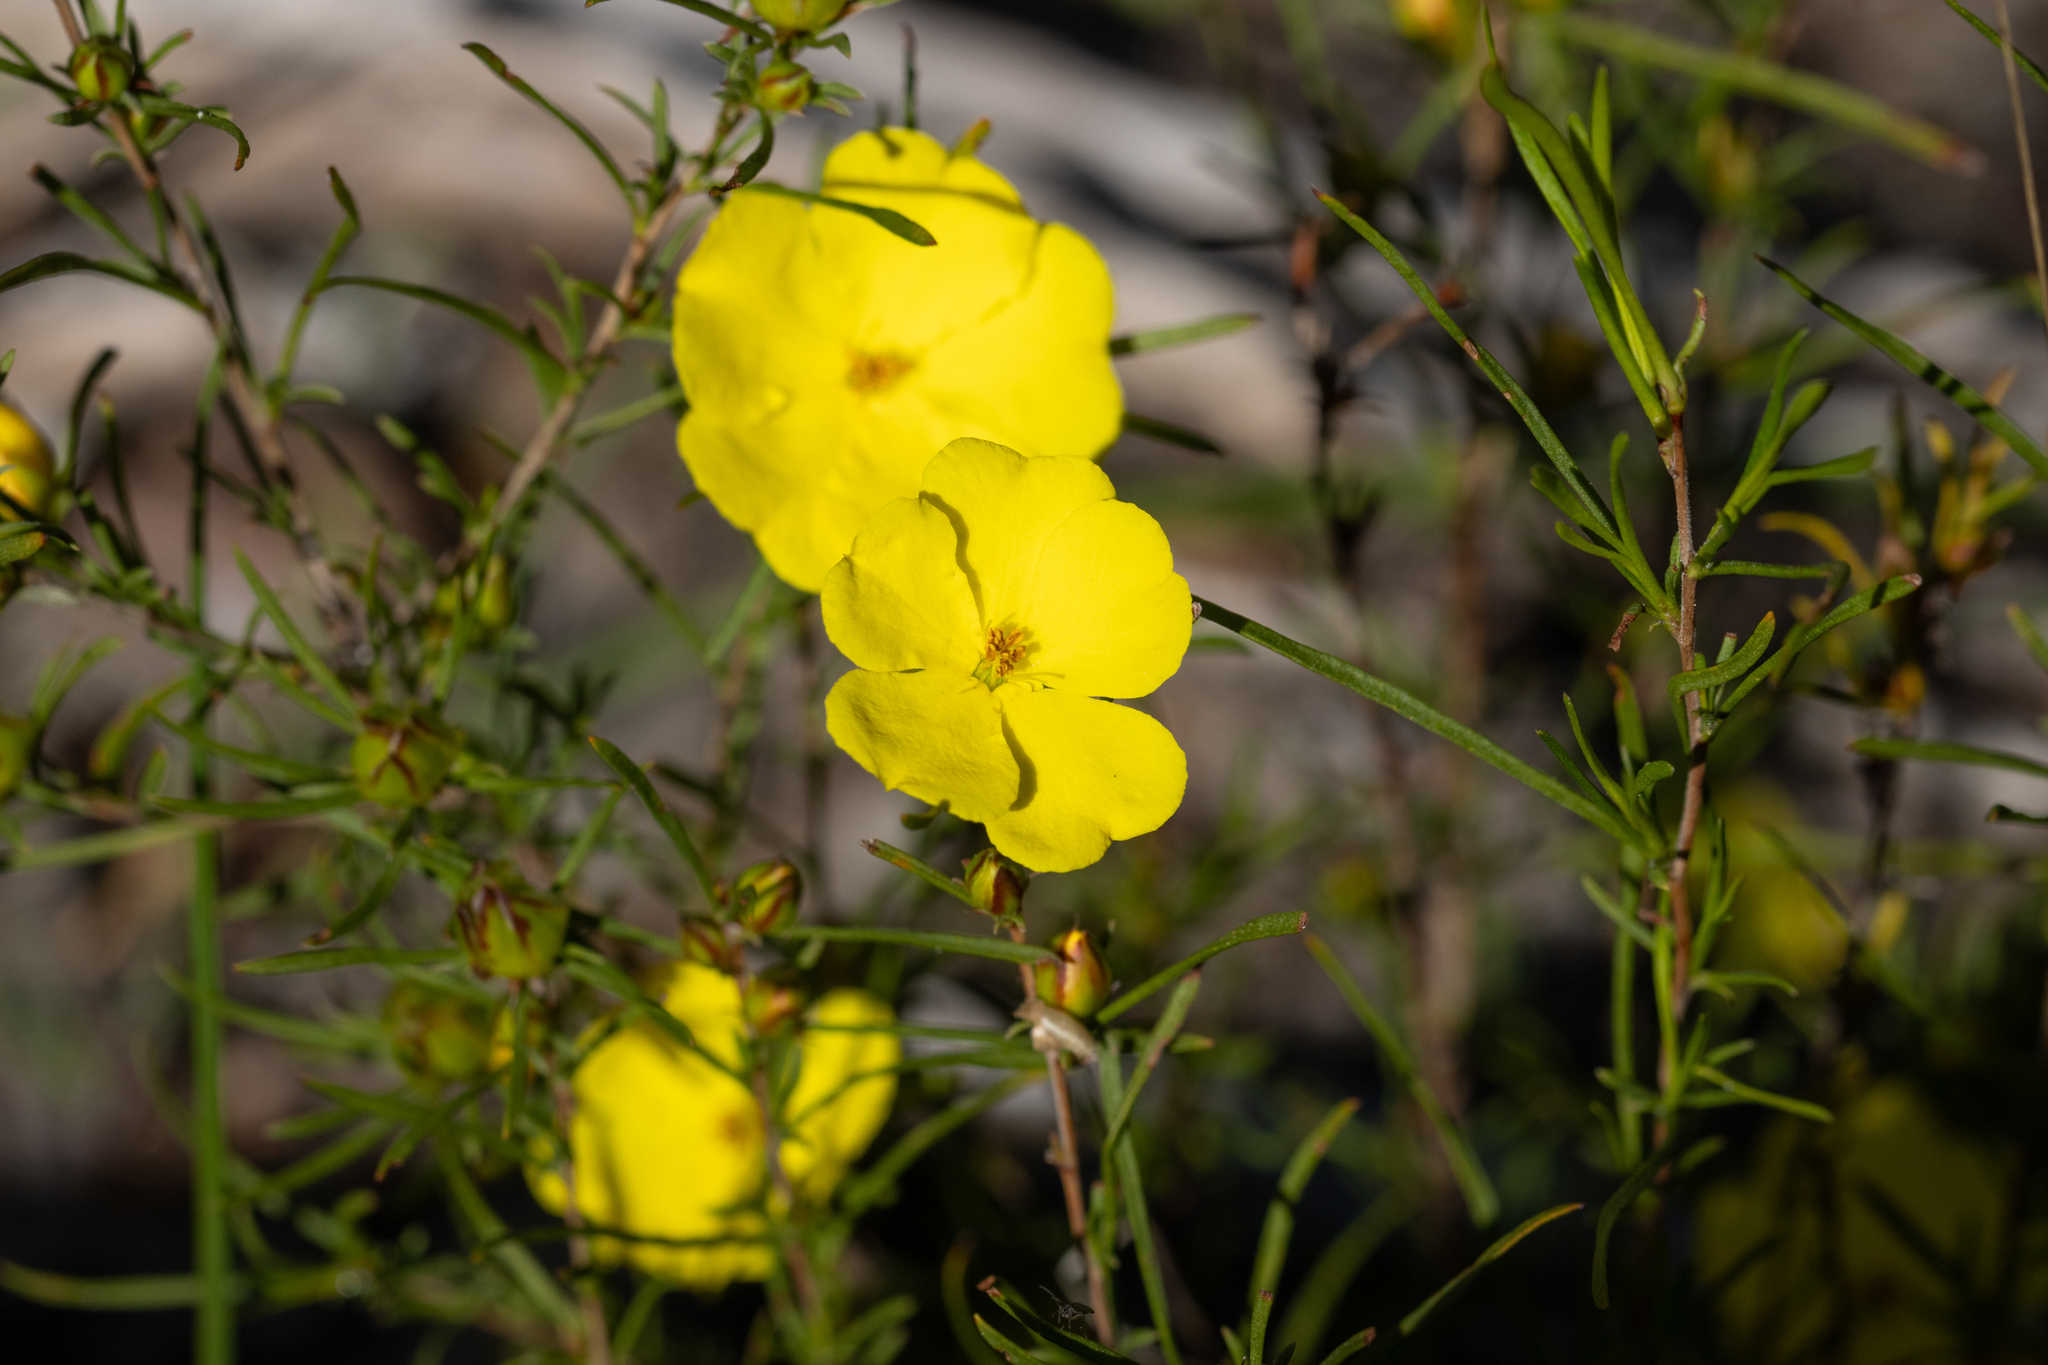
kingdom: Plantae
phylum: Tracheophyta
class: Magnoliopsida
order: Dilleniales
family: Dilleniaceae
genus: Hibbertia
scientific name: Hibbertia virgata
